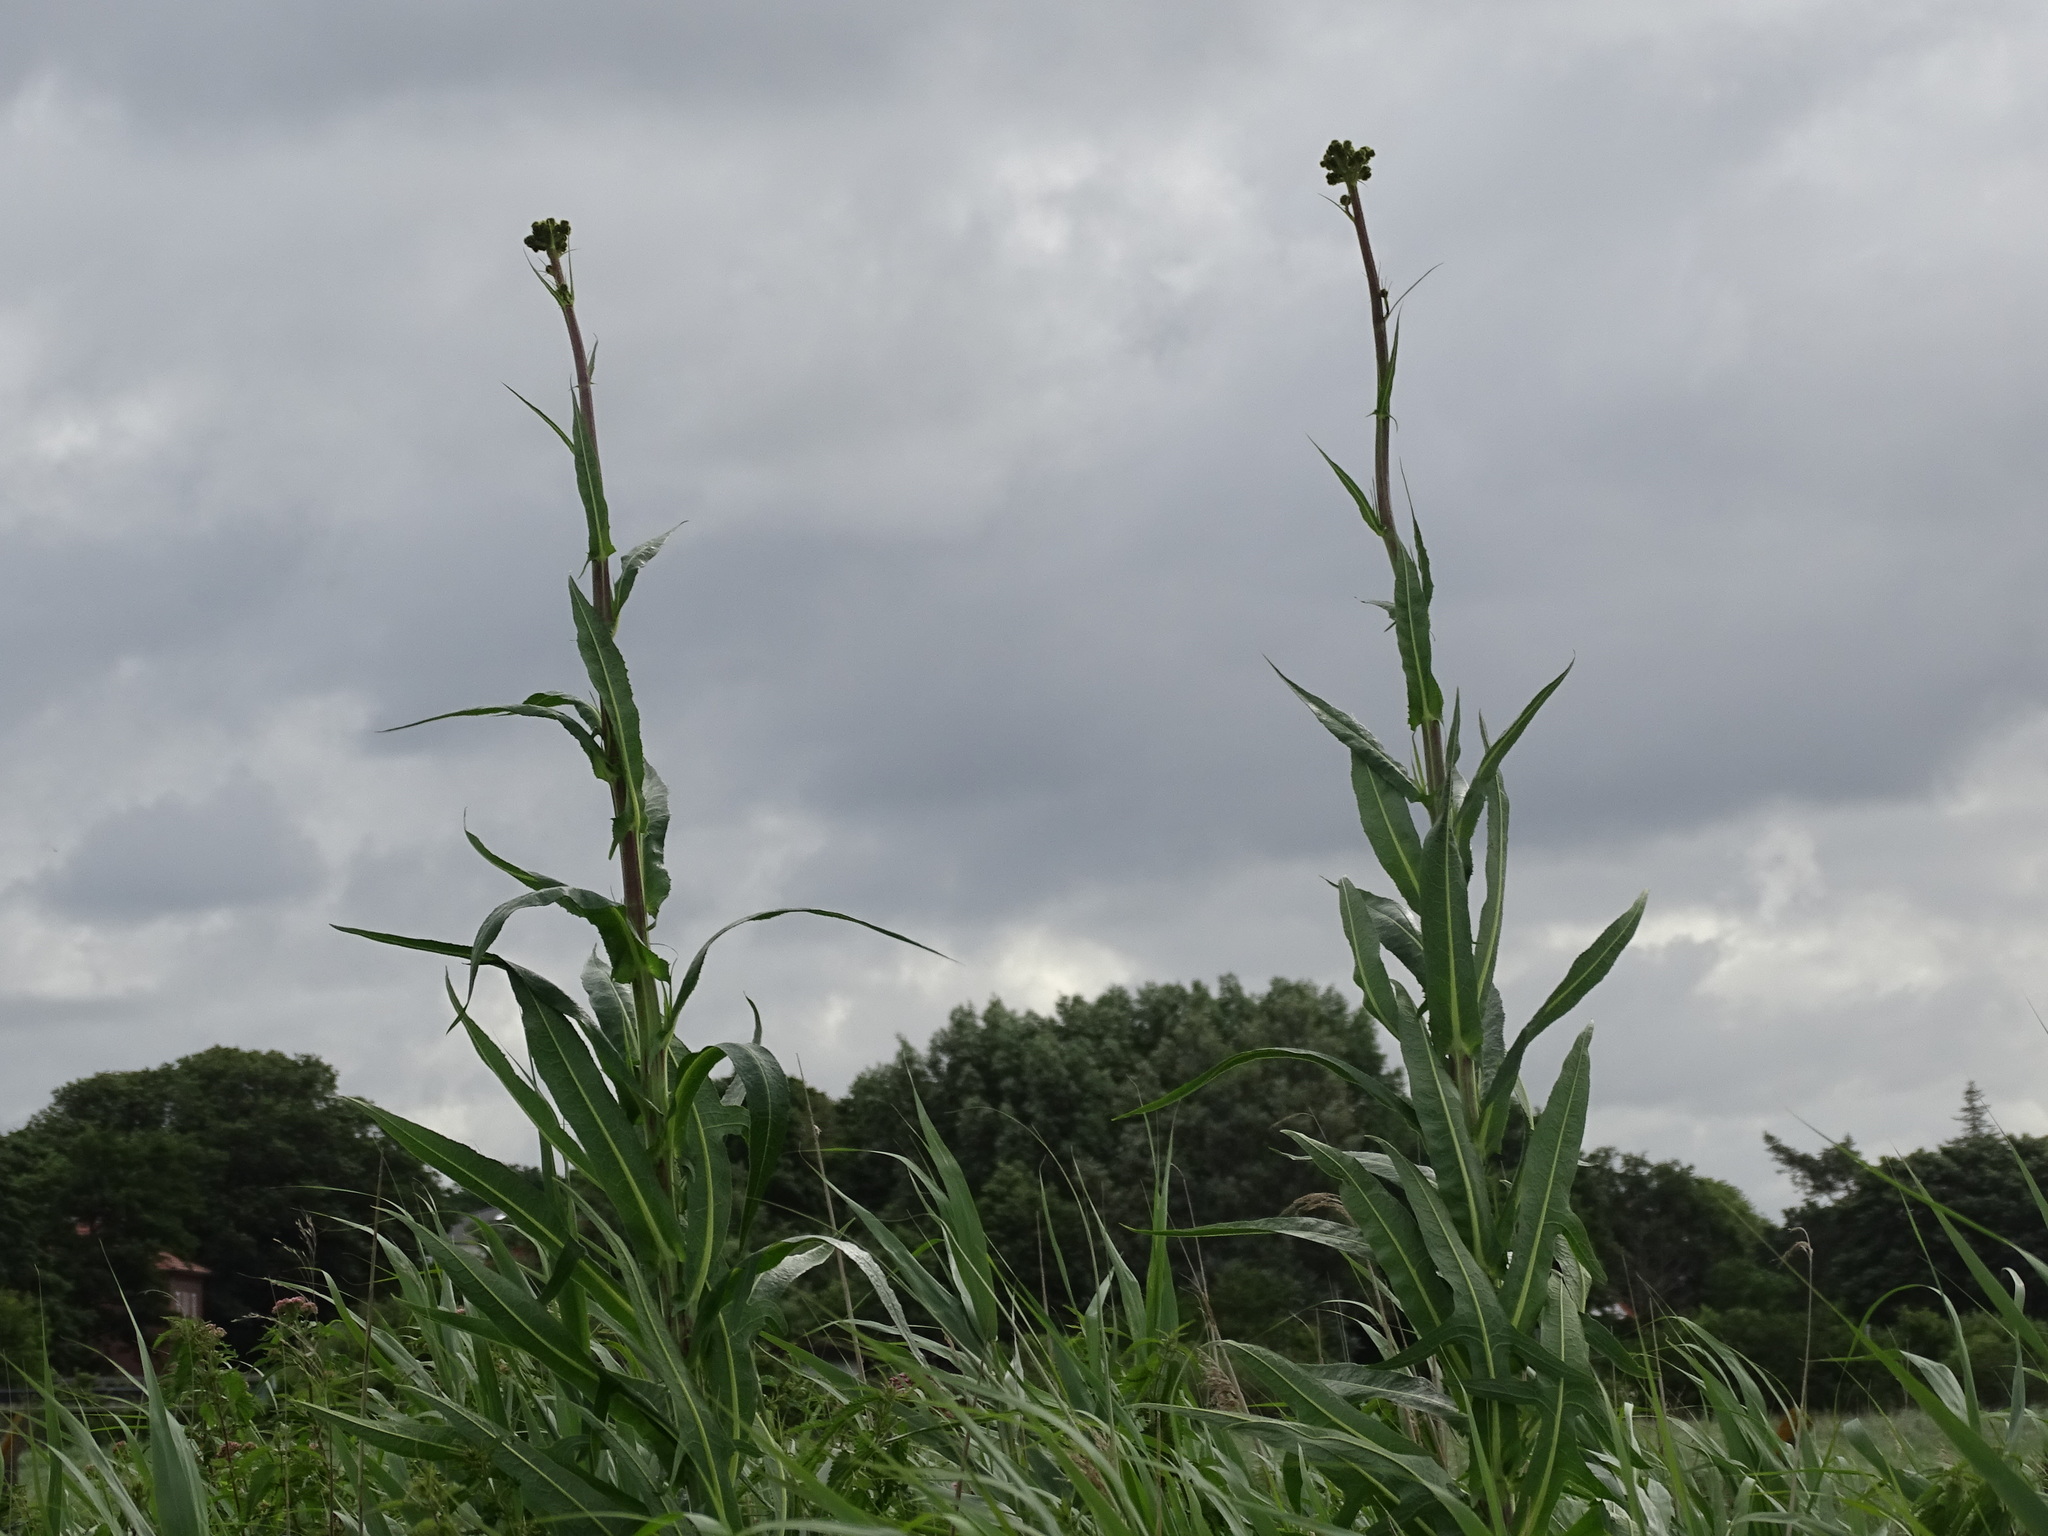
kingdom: Plantae
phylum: Tracheophyta
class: Magnoliopsida
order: Asterales
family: Asteraceae
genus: Sonchus
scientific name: Sonchus palustris
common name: Marsh sow-thistle
